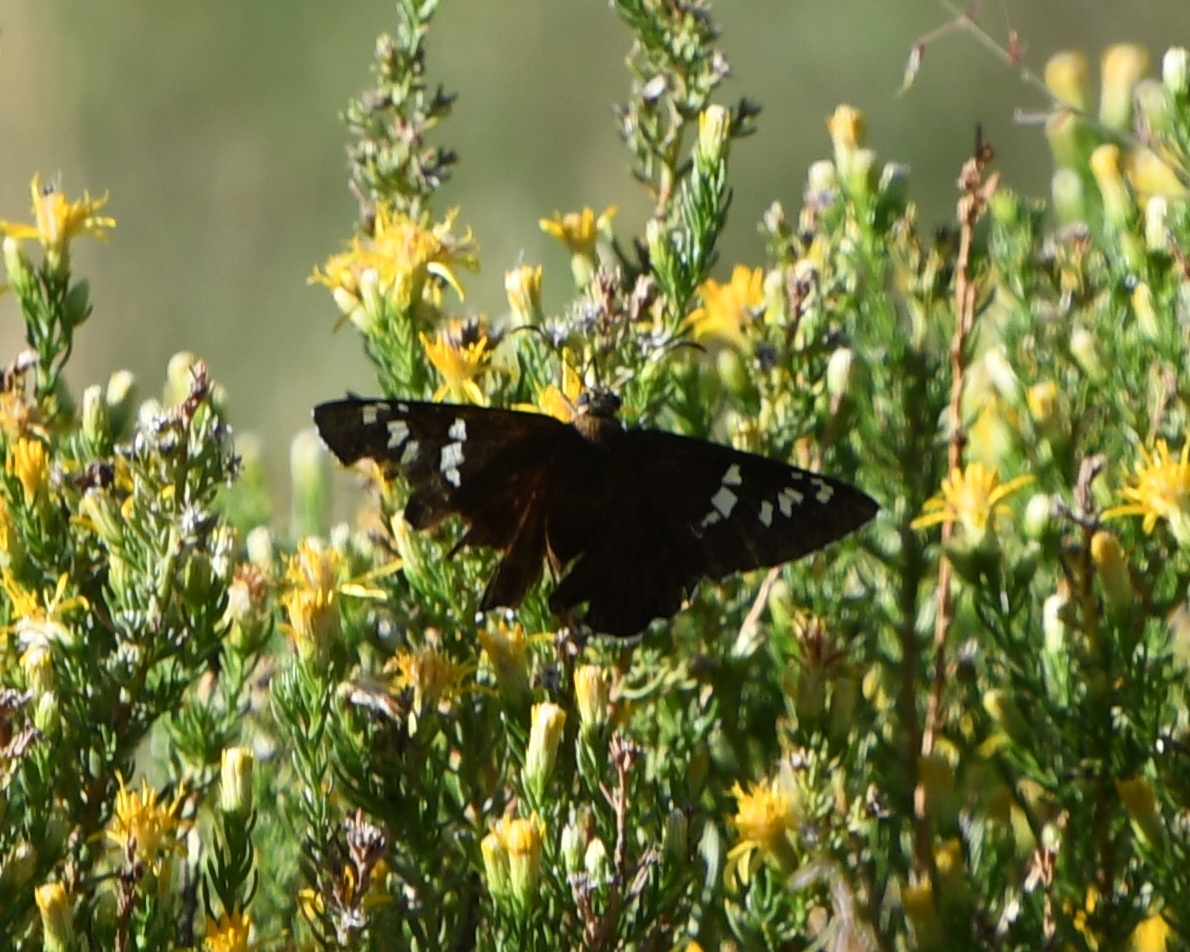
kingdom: Animalia
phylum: Arthropoda
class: Insecta
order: Lepidoptera
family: Hesperiidae
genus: Pyrrhopyge
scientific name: Pyrrhopyge araxes
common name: Dull firetip
